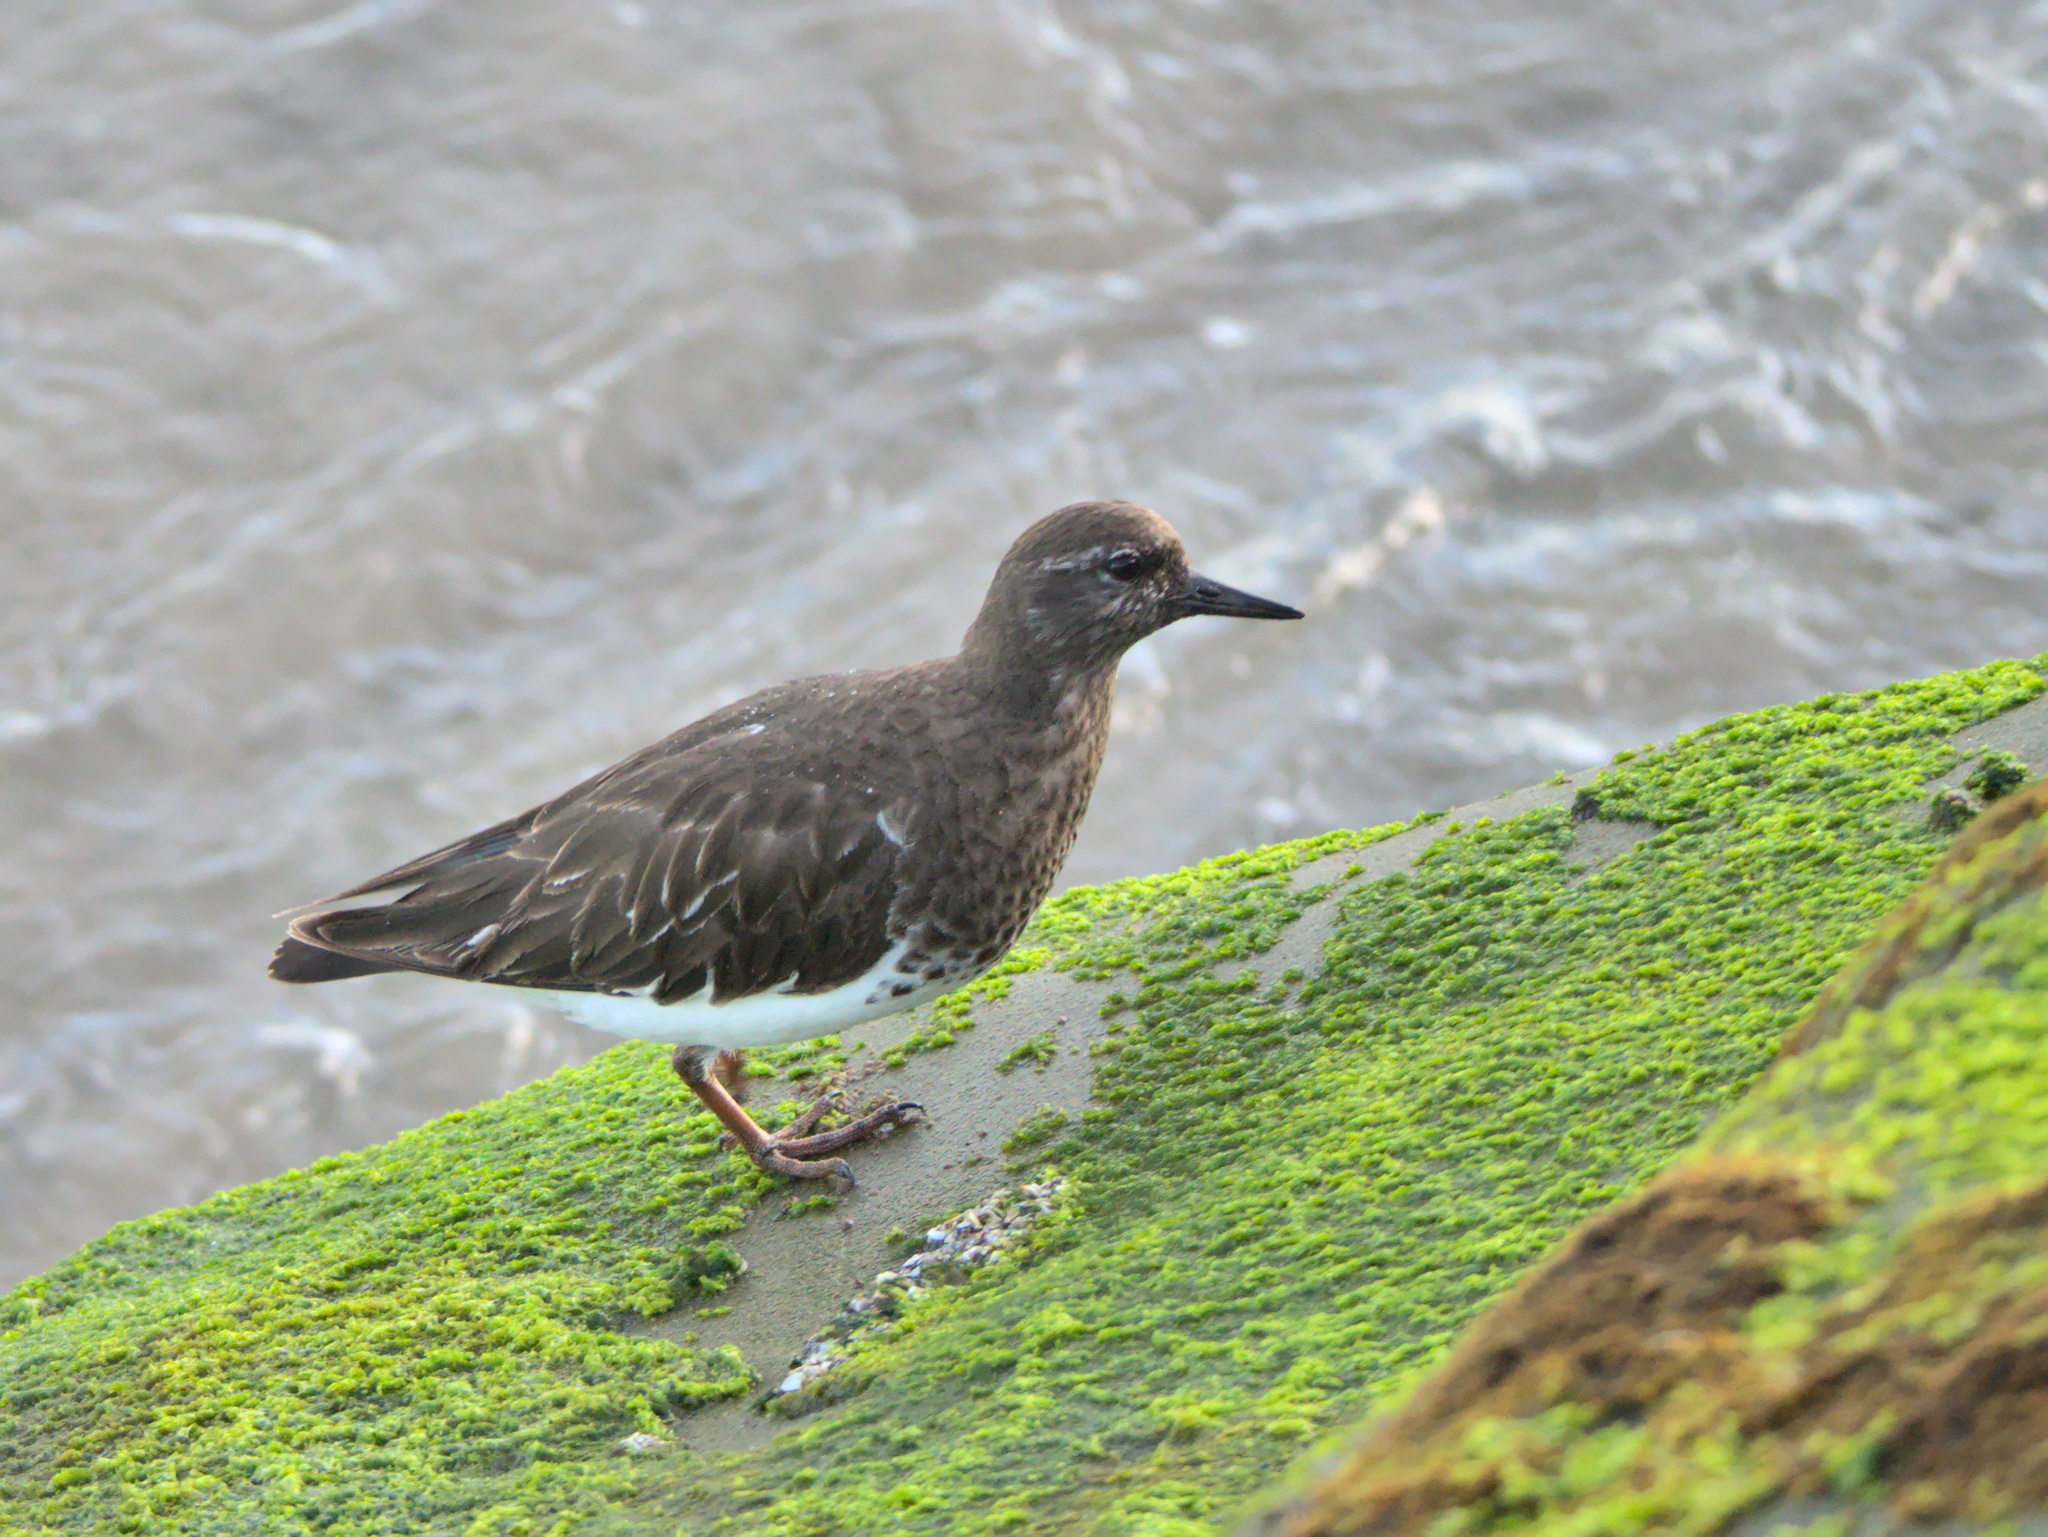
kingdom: Animalia
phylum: Chordata
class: Aves
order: Charadriiformes
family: Scolopacidae
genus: Arenaria
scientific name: Arenaria melanocephala
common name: Black turnstone
